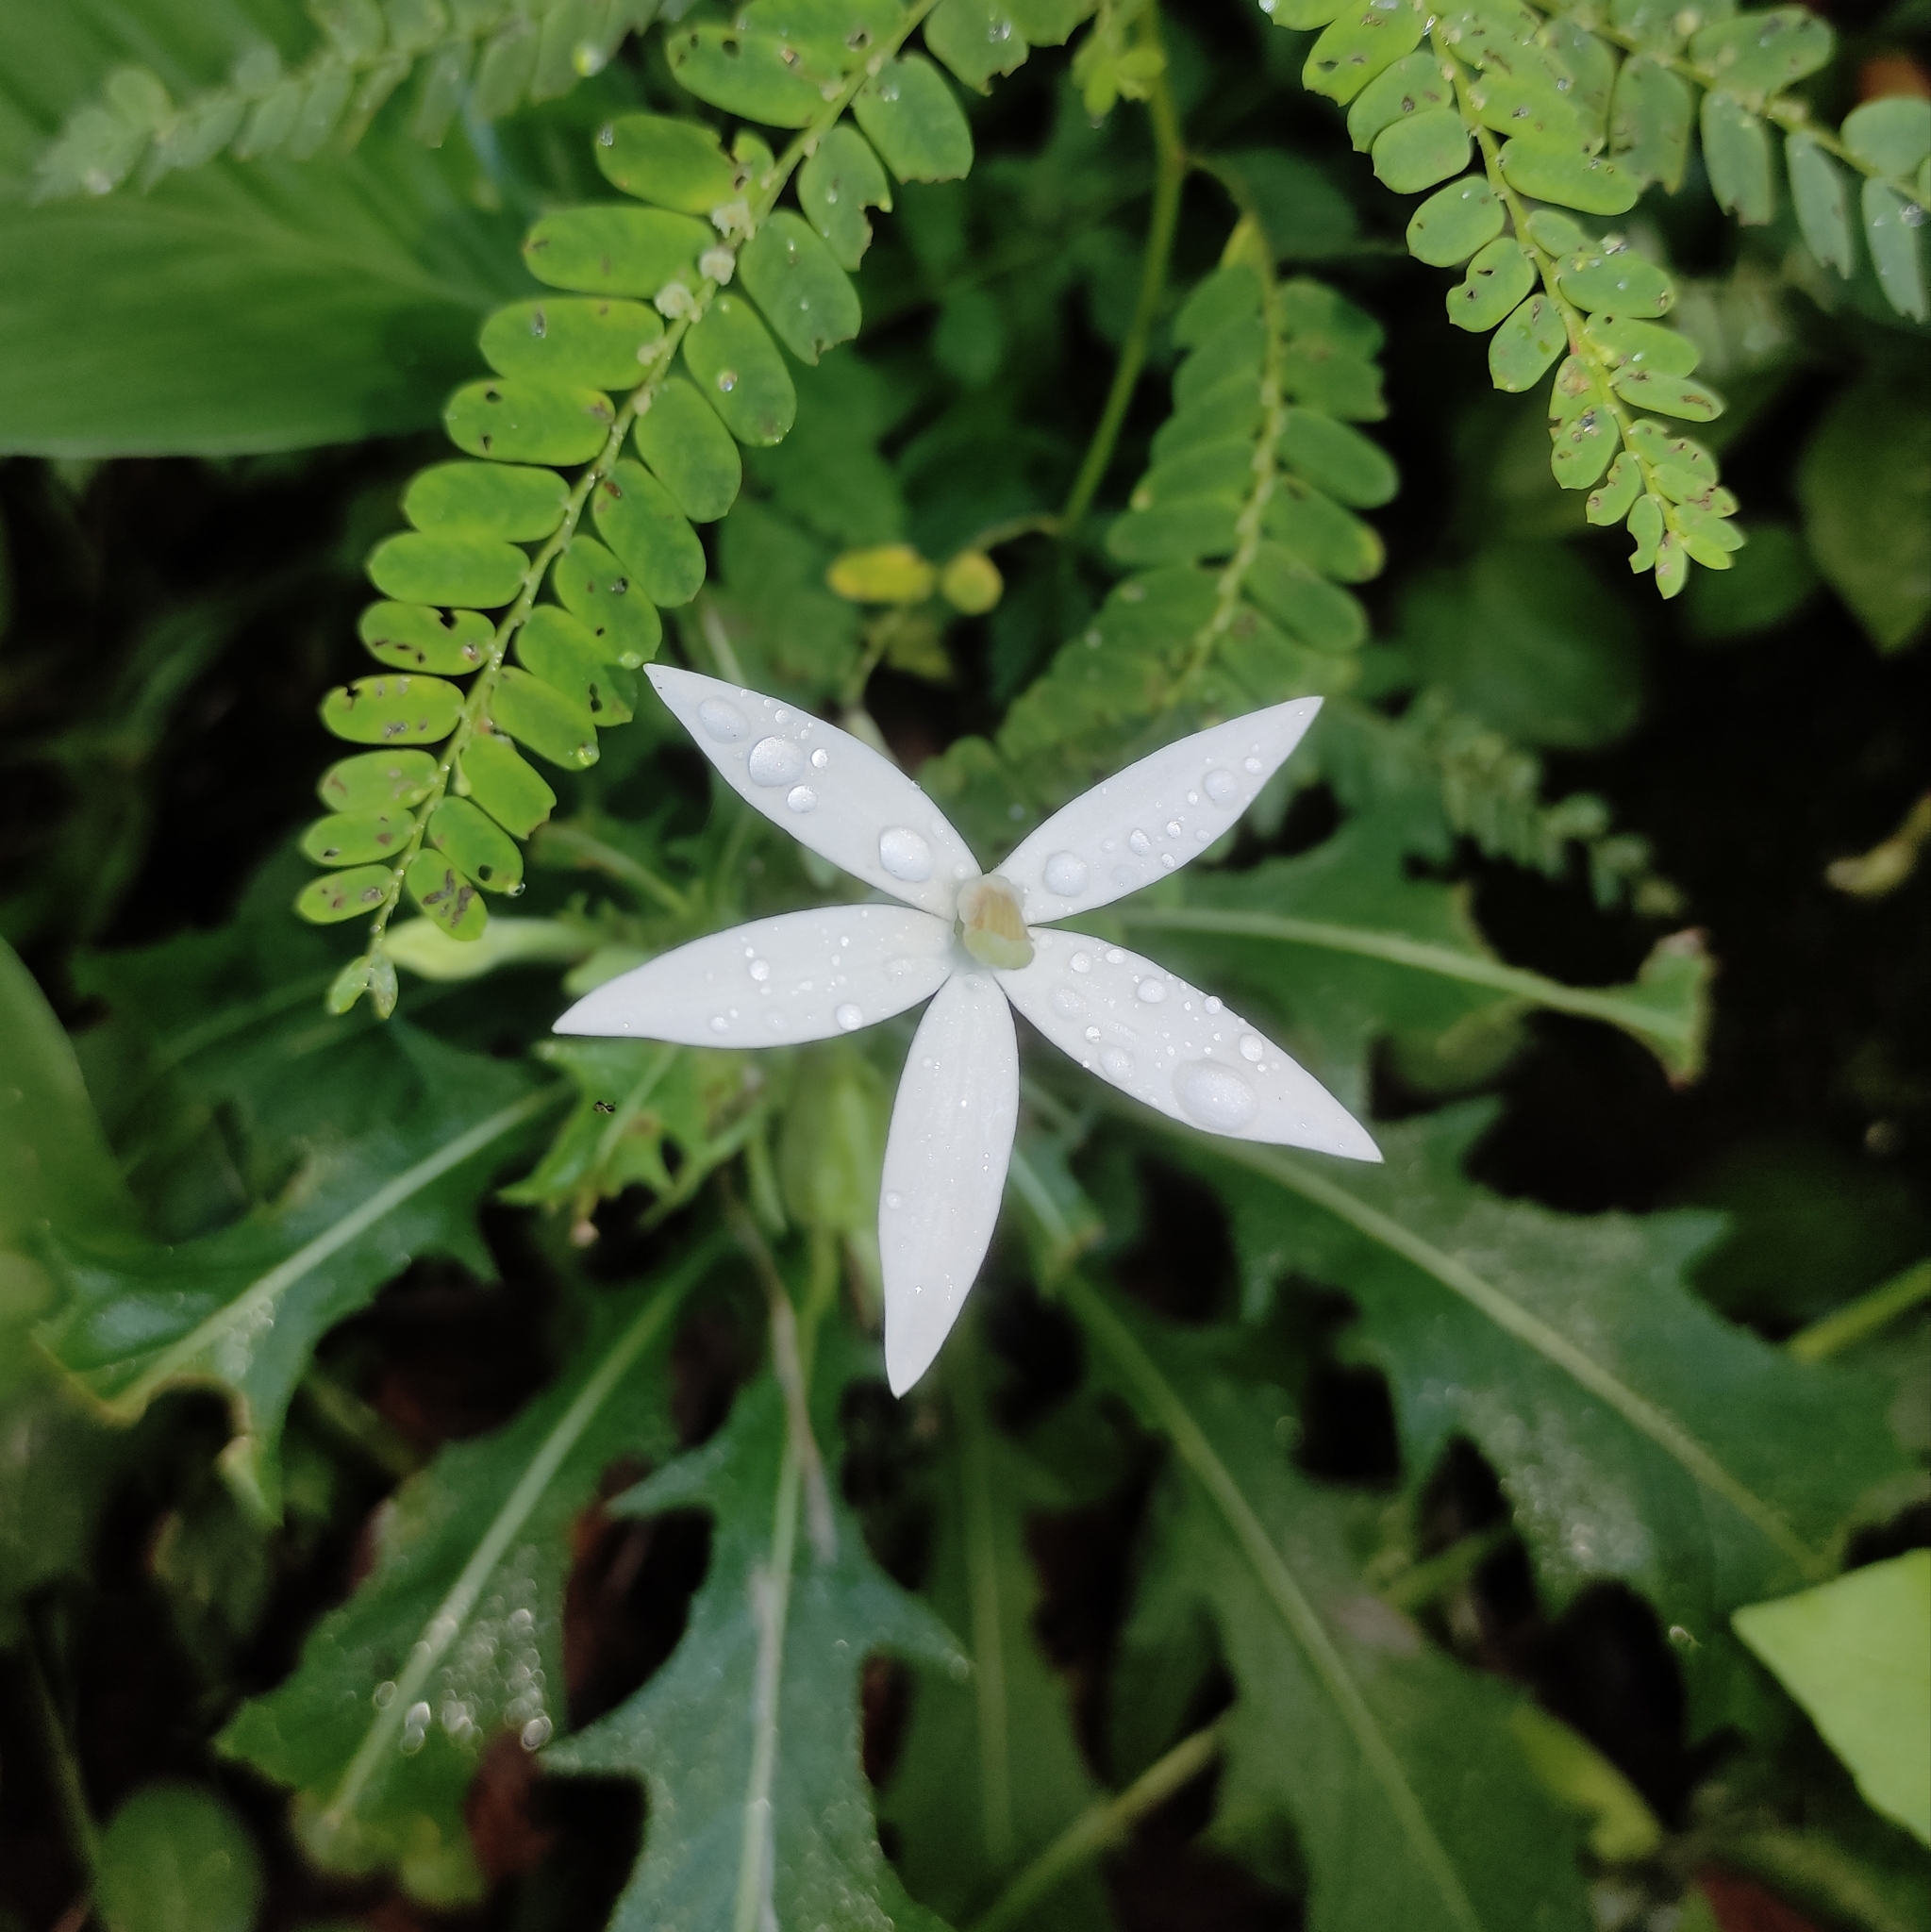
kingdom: Plantae
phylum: Tracheophyta
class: Magnoliopsida
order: Asterales
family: Campanulaceae
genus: Hippobroma
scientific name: Hippobroma longiflora
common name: Madamfate
